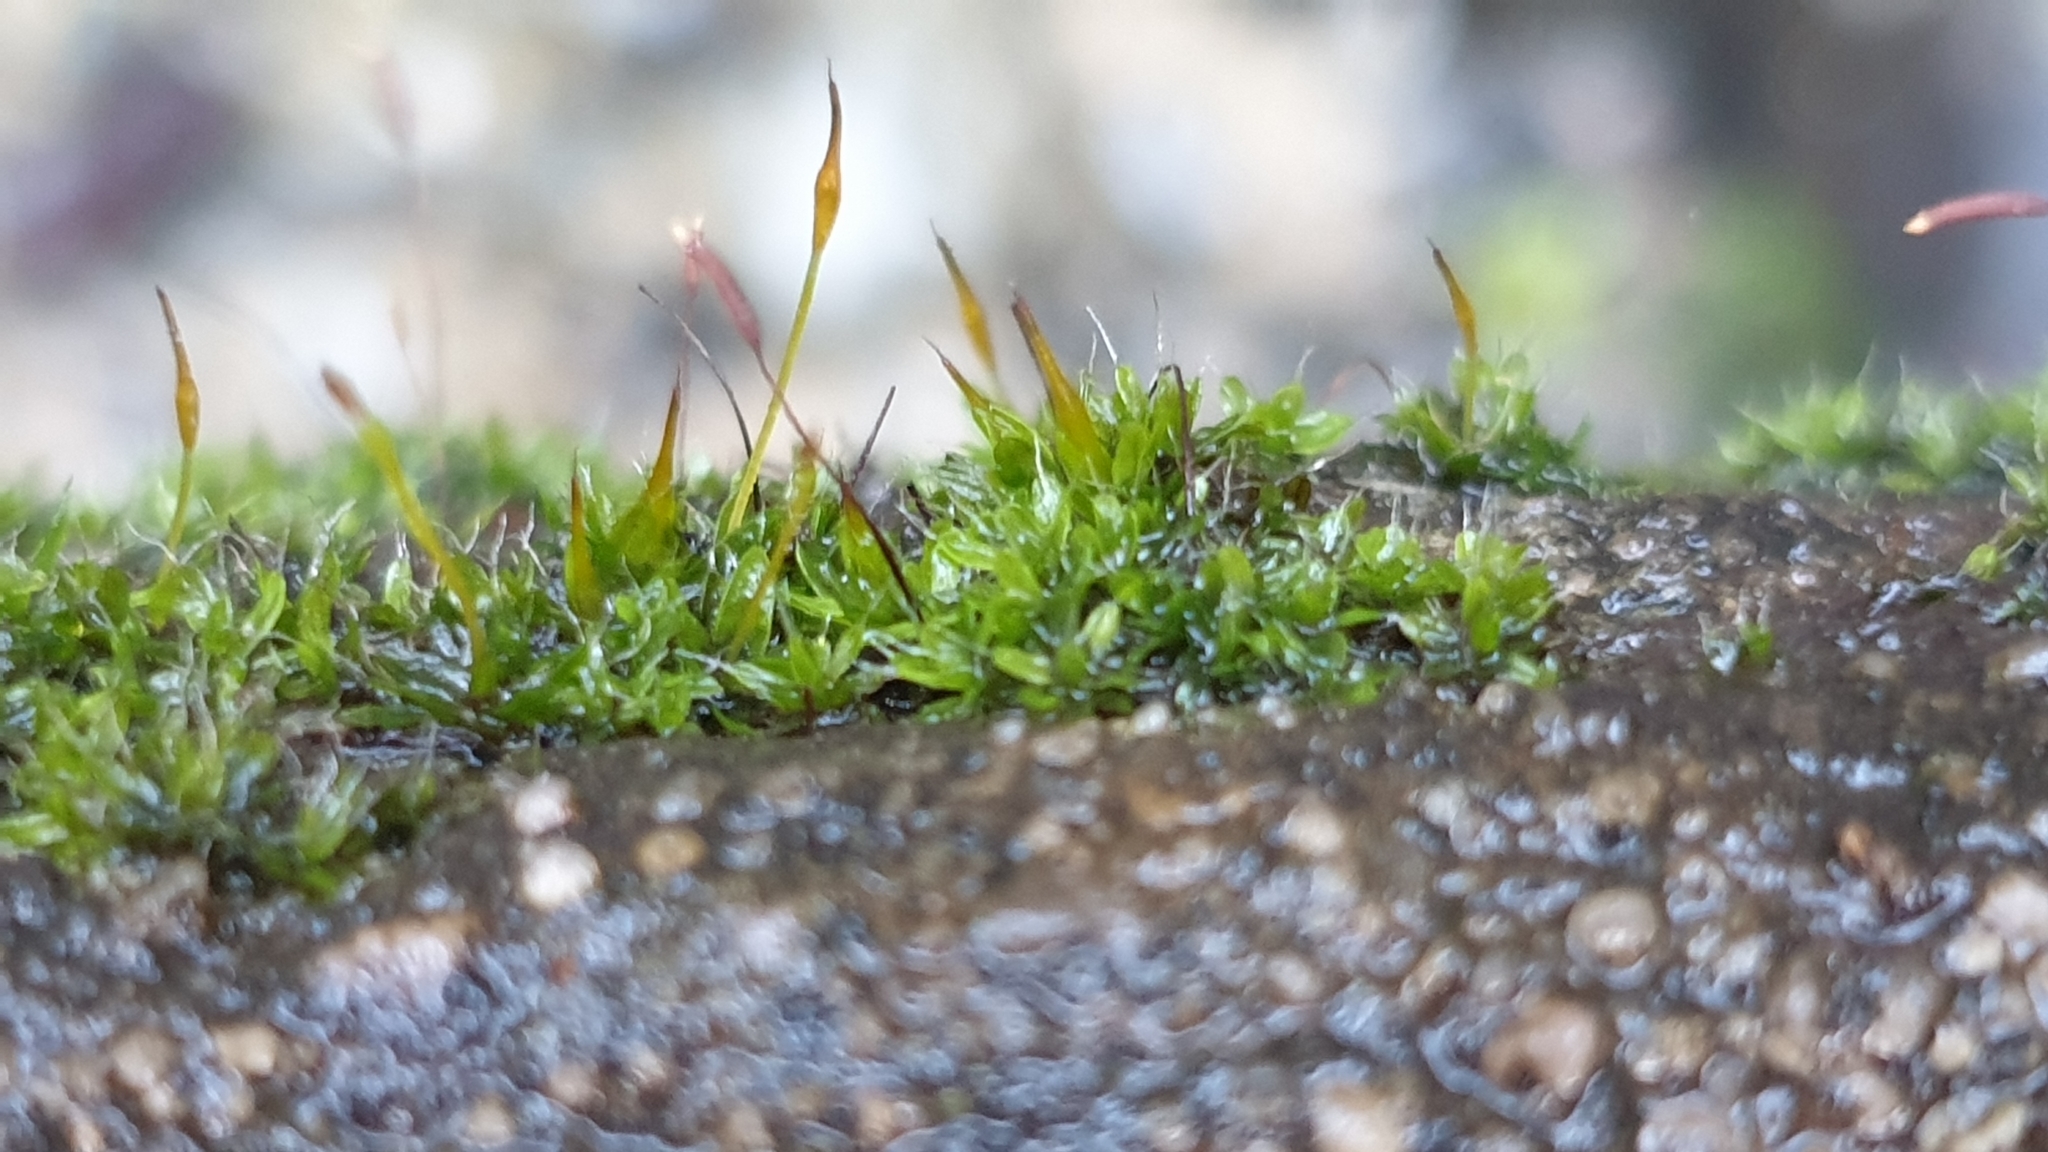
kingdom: Plantae
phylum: Bryophyta
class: Bryopsida
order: Pottiales
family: Pottiaceae
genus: Tortula
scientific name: Tortula muralis
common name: Wall screw-moss
